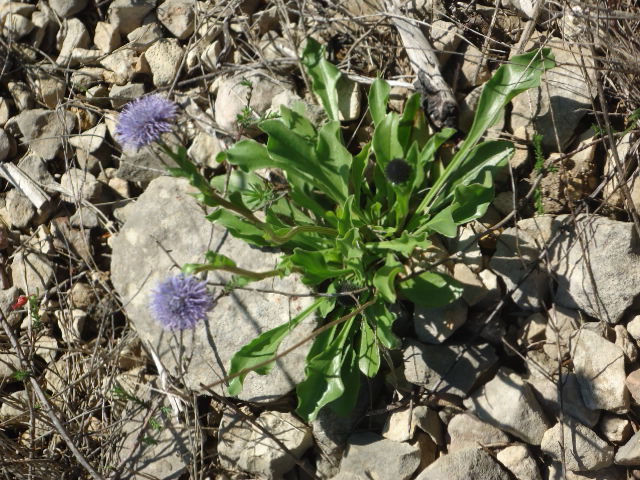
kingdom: Plantae
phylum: Tracheophyta
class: Magnoliopsida
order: Lamiales
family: Plantaginaceae
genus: Globularia
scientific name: Globularia vulgaris
